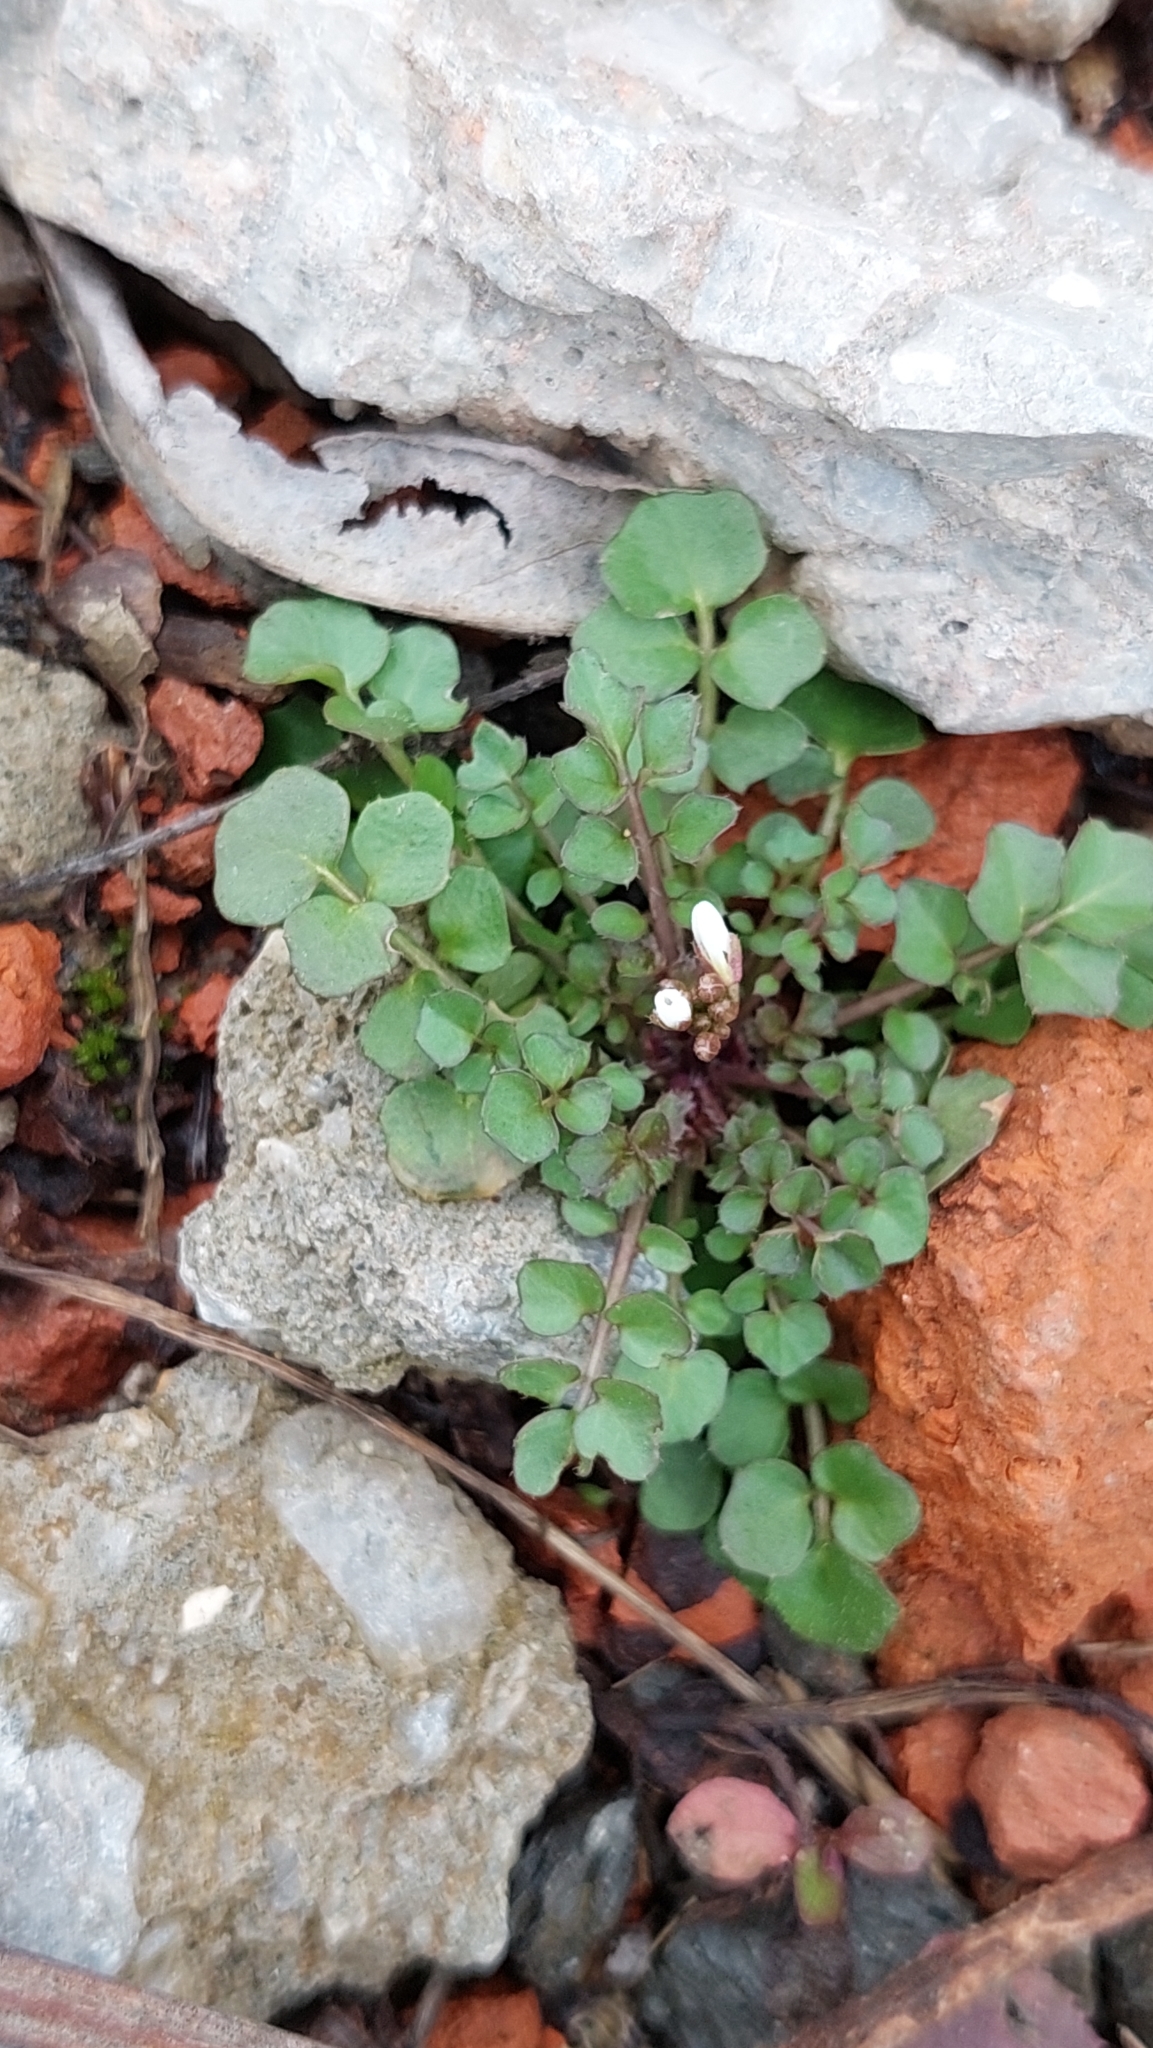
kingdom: Plantae
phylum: Tracheophyta
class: Magnoliopsida
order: Brassicales
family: Brassicaceae
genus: Cardamine
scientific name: Cardamine hirsuta
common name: Hairy bittercress
